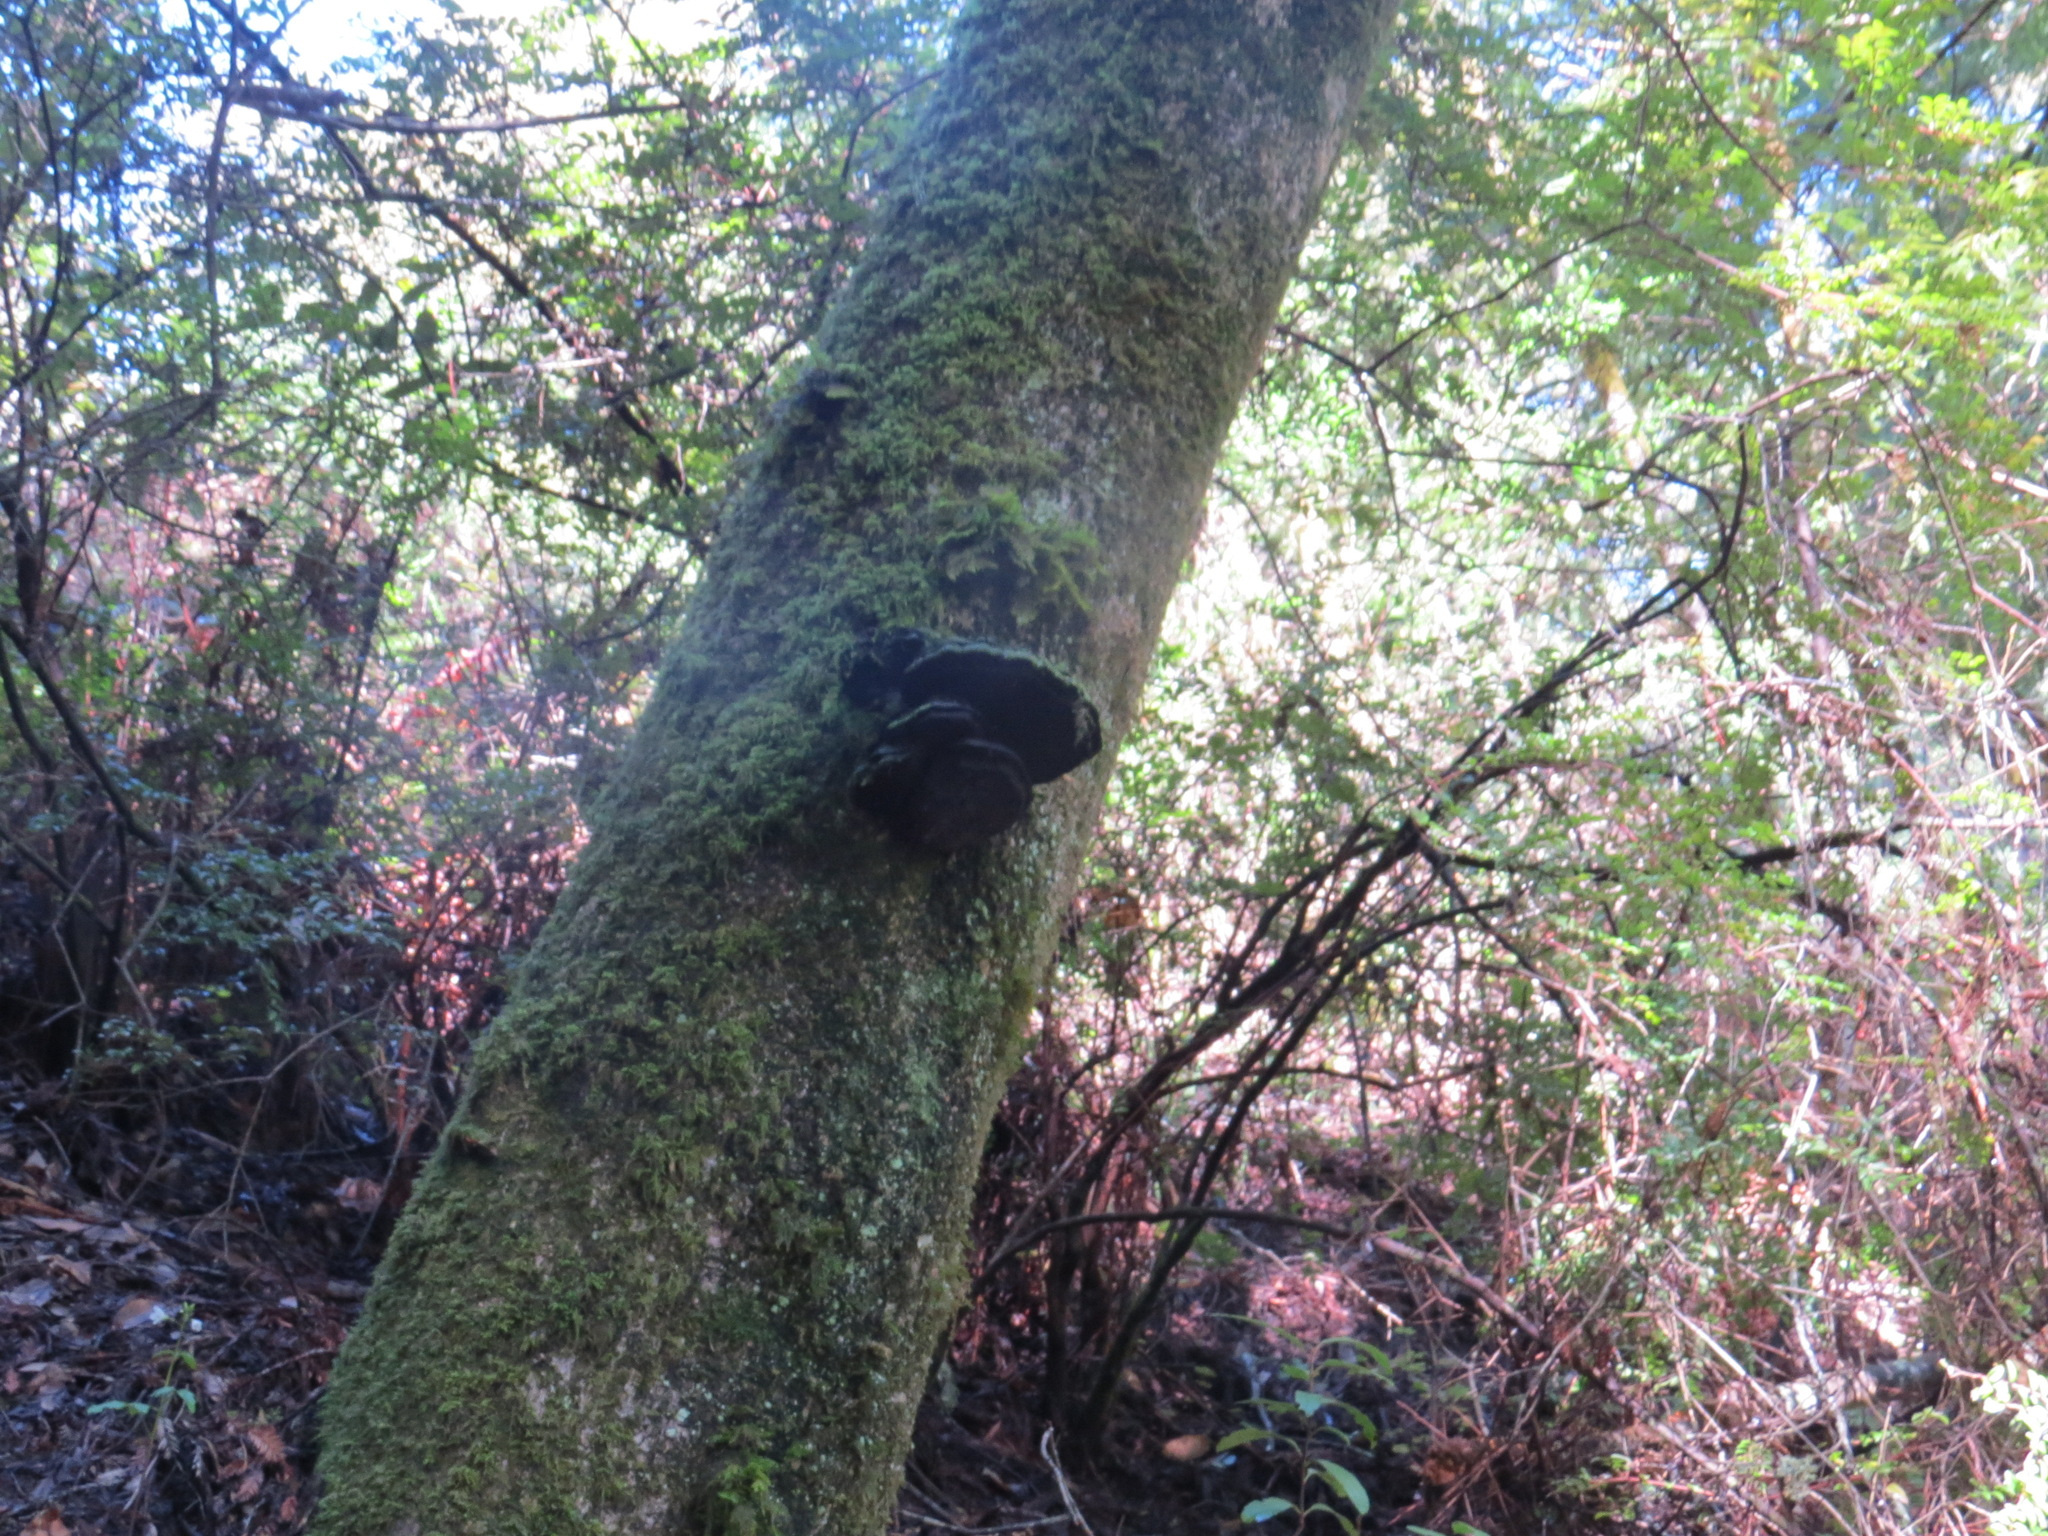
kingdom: Fungi
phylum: Basidiomycota
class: Agaricomycetes
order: Polyporales
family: Polyporaceae
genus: Ganoderma
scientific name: Ganoderma brownii
